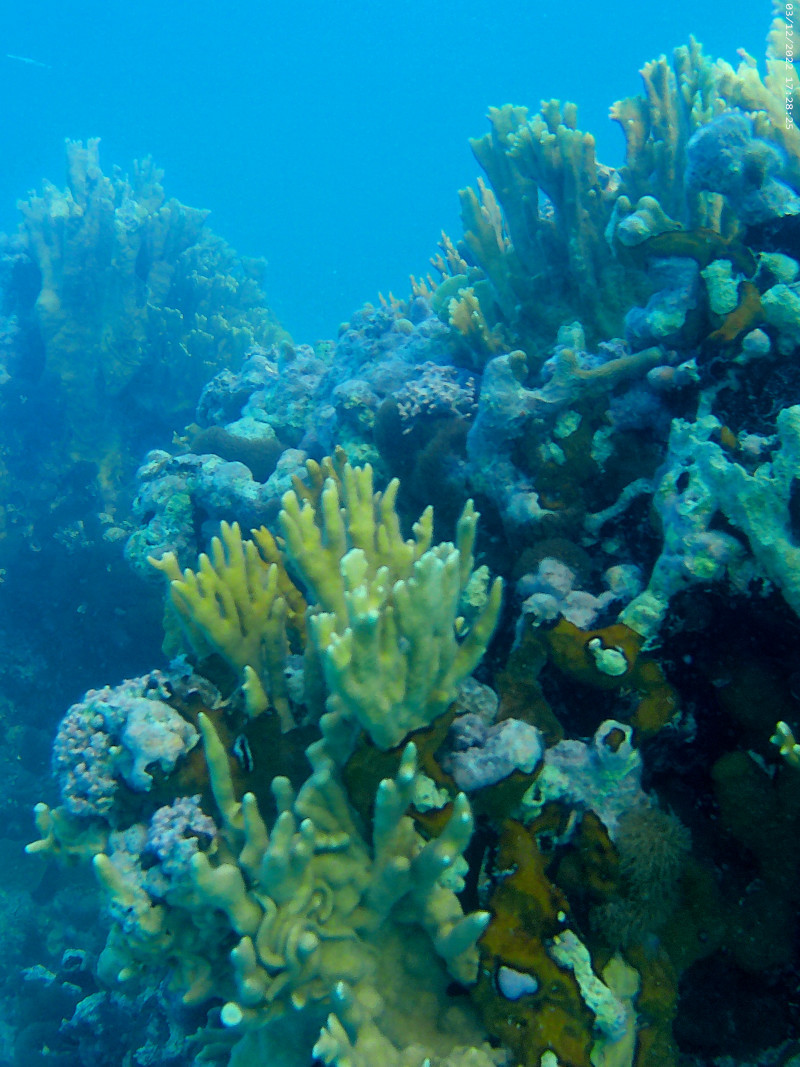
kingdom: Animalia
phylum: Cnidaria
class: Hydrozoa
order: Anthoathecata
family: Milleporidae
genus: Millepora
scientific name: Millepora alcicornis
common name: Branching fire coral
